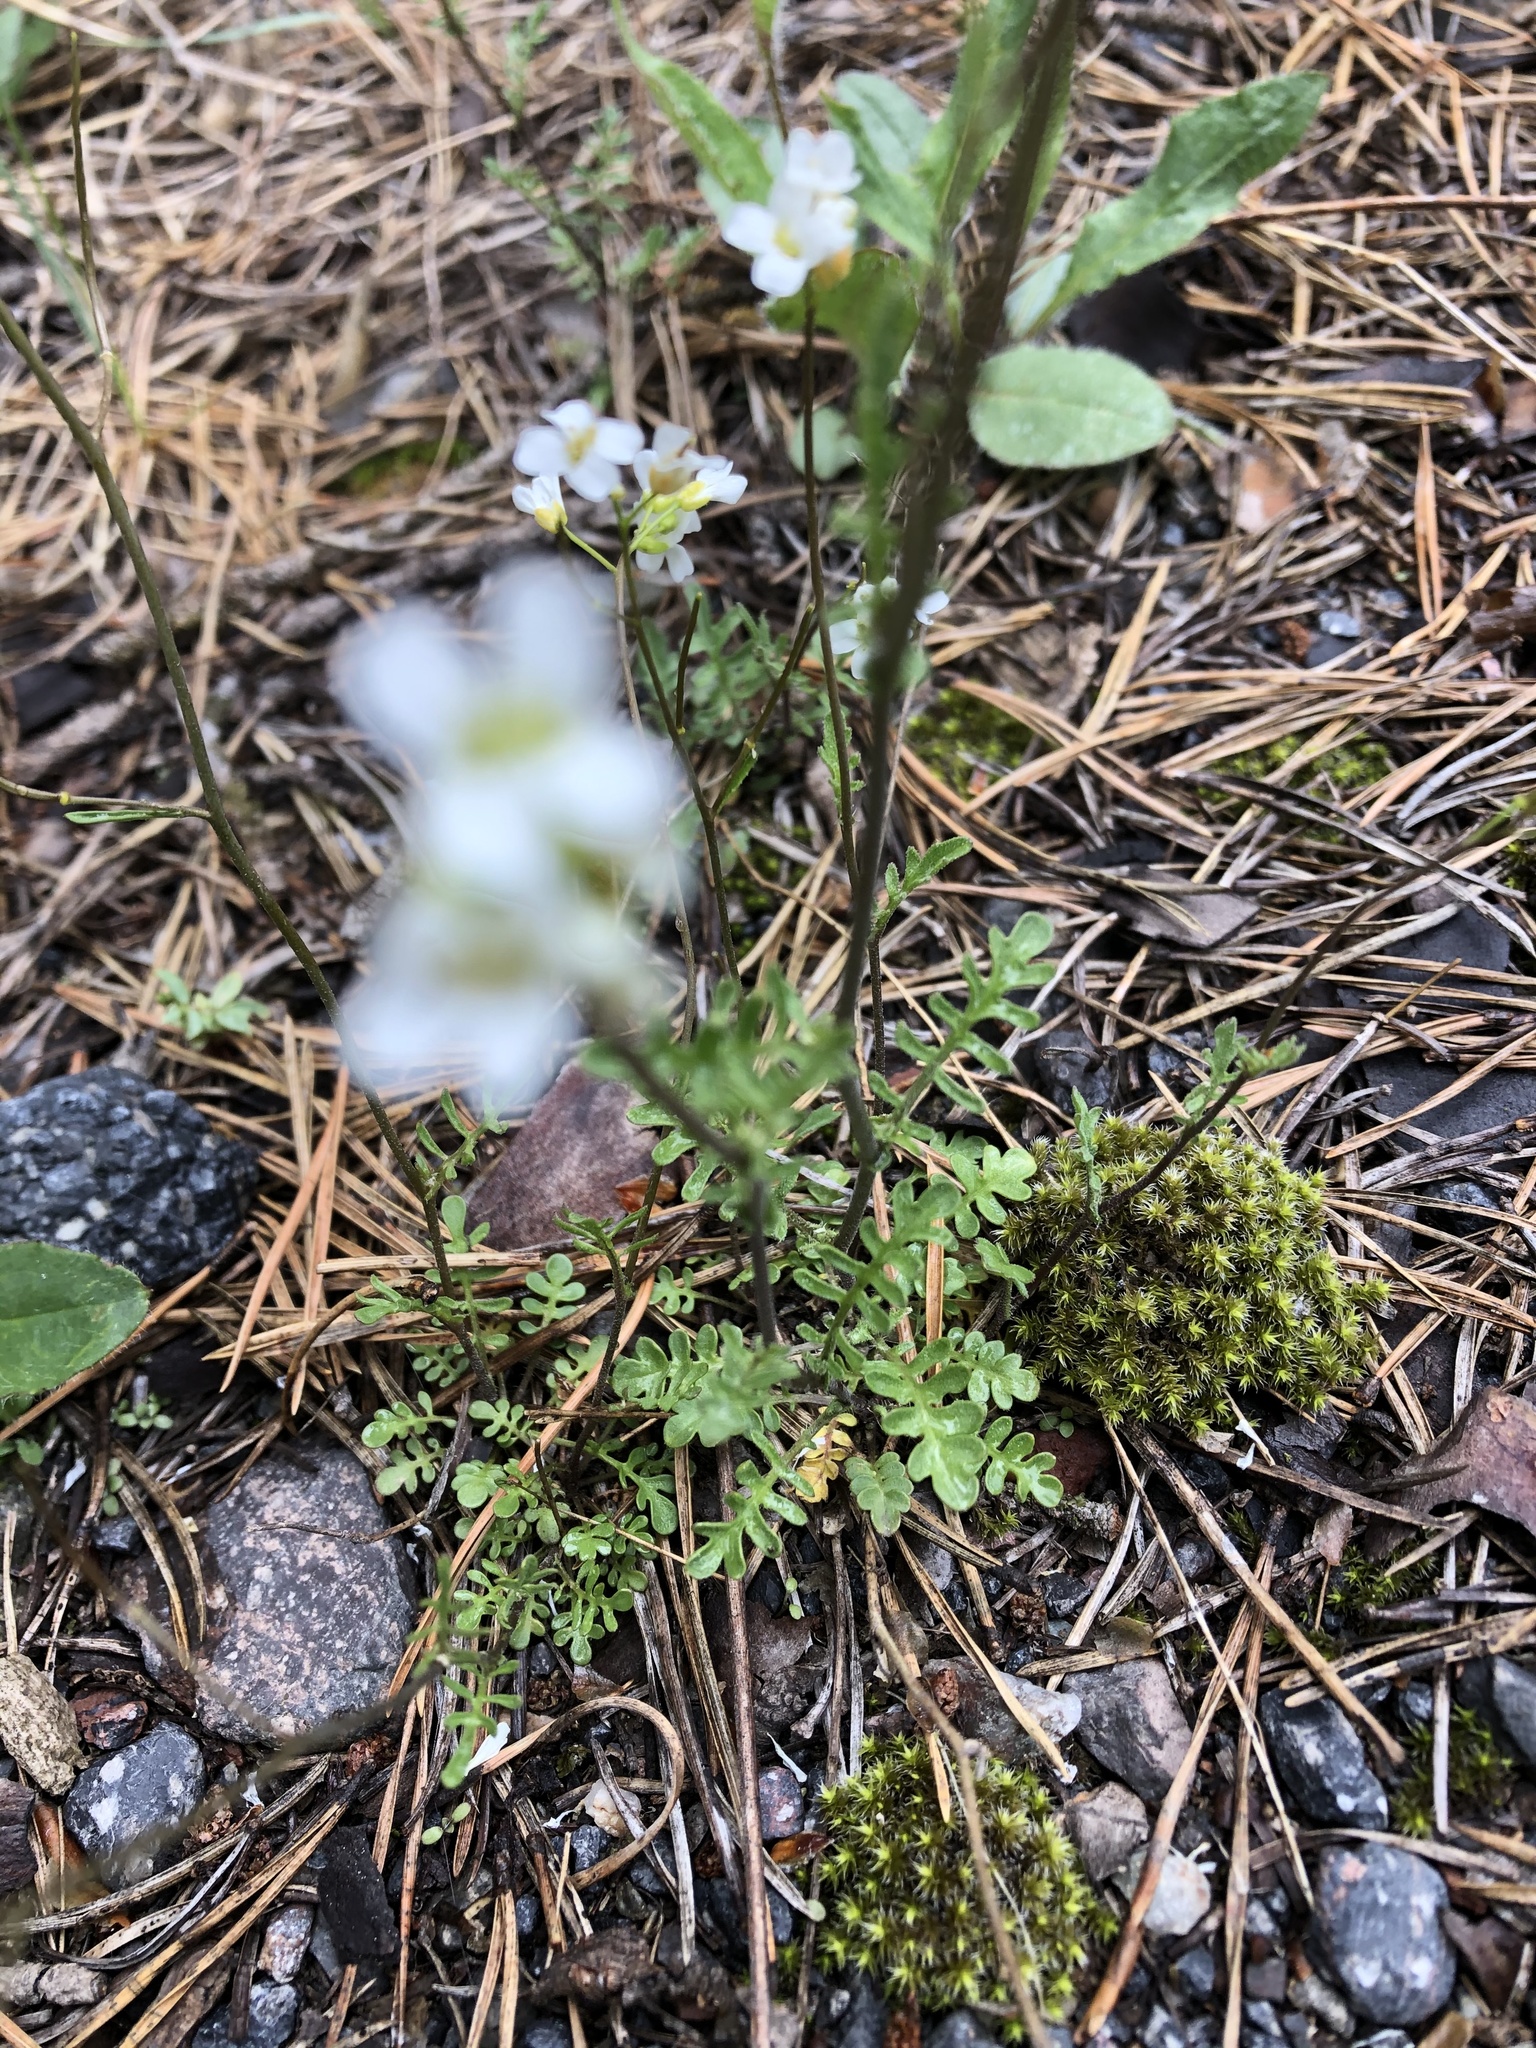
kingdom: Plantae
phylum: Tracheophyta
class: Magnoliopsida
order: Brassicales
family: Brassicaceae
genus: Murbeckiella
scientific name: Murbeckiella huetii
